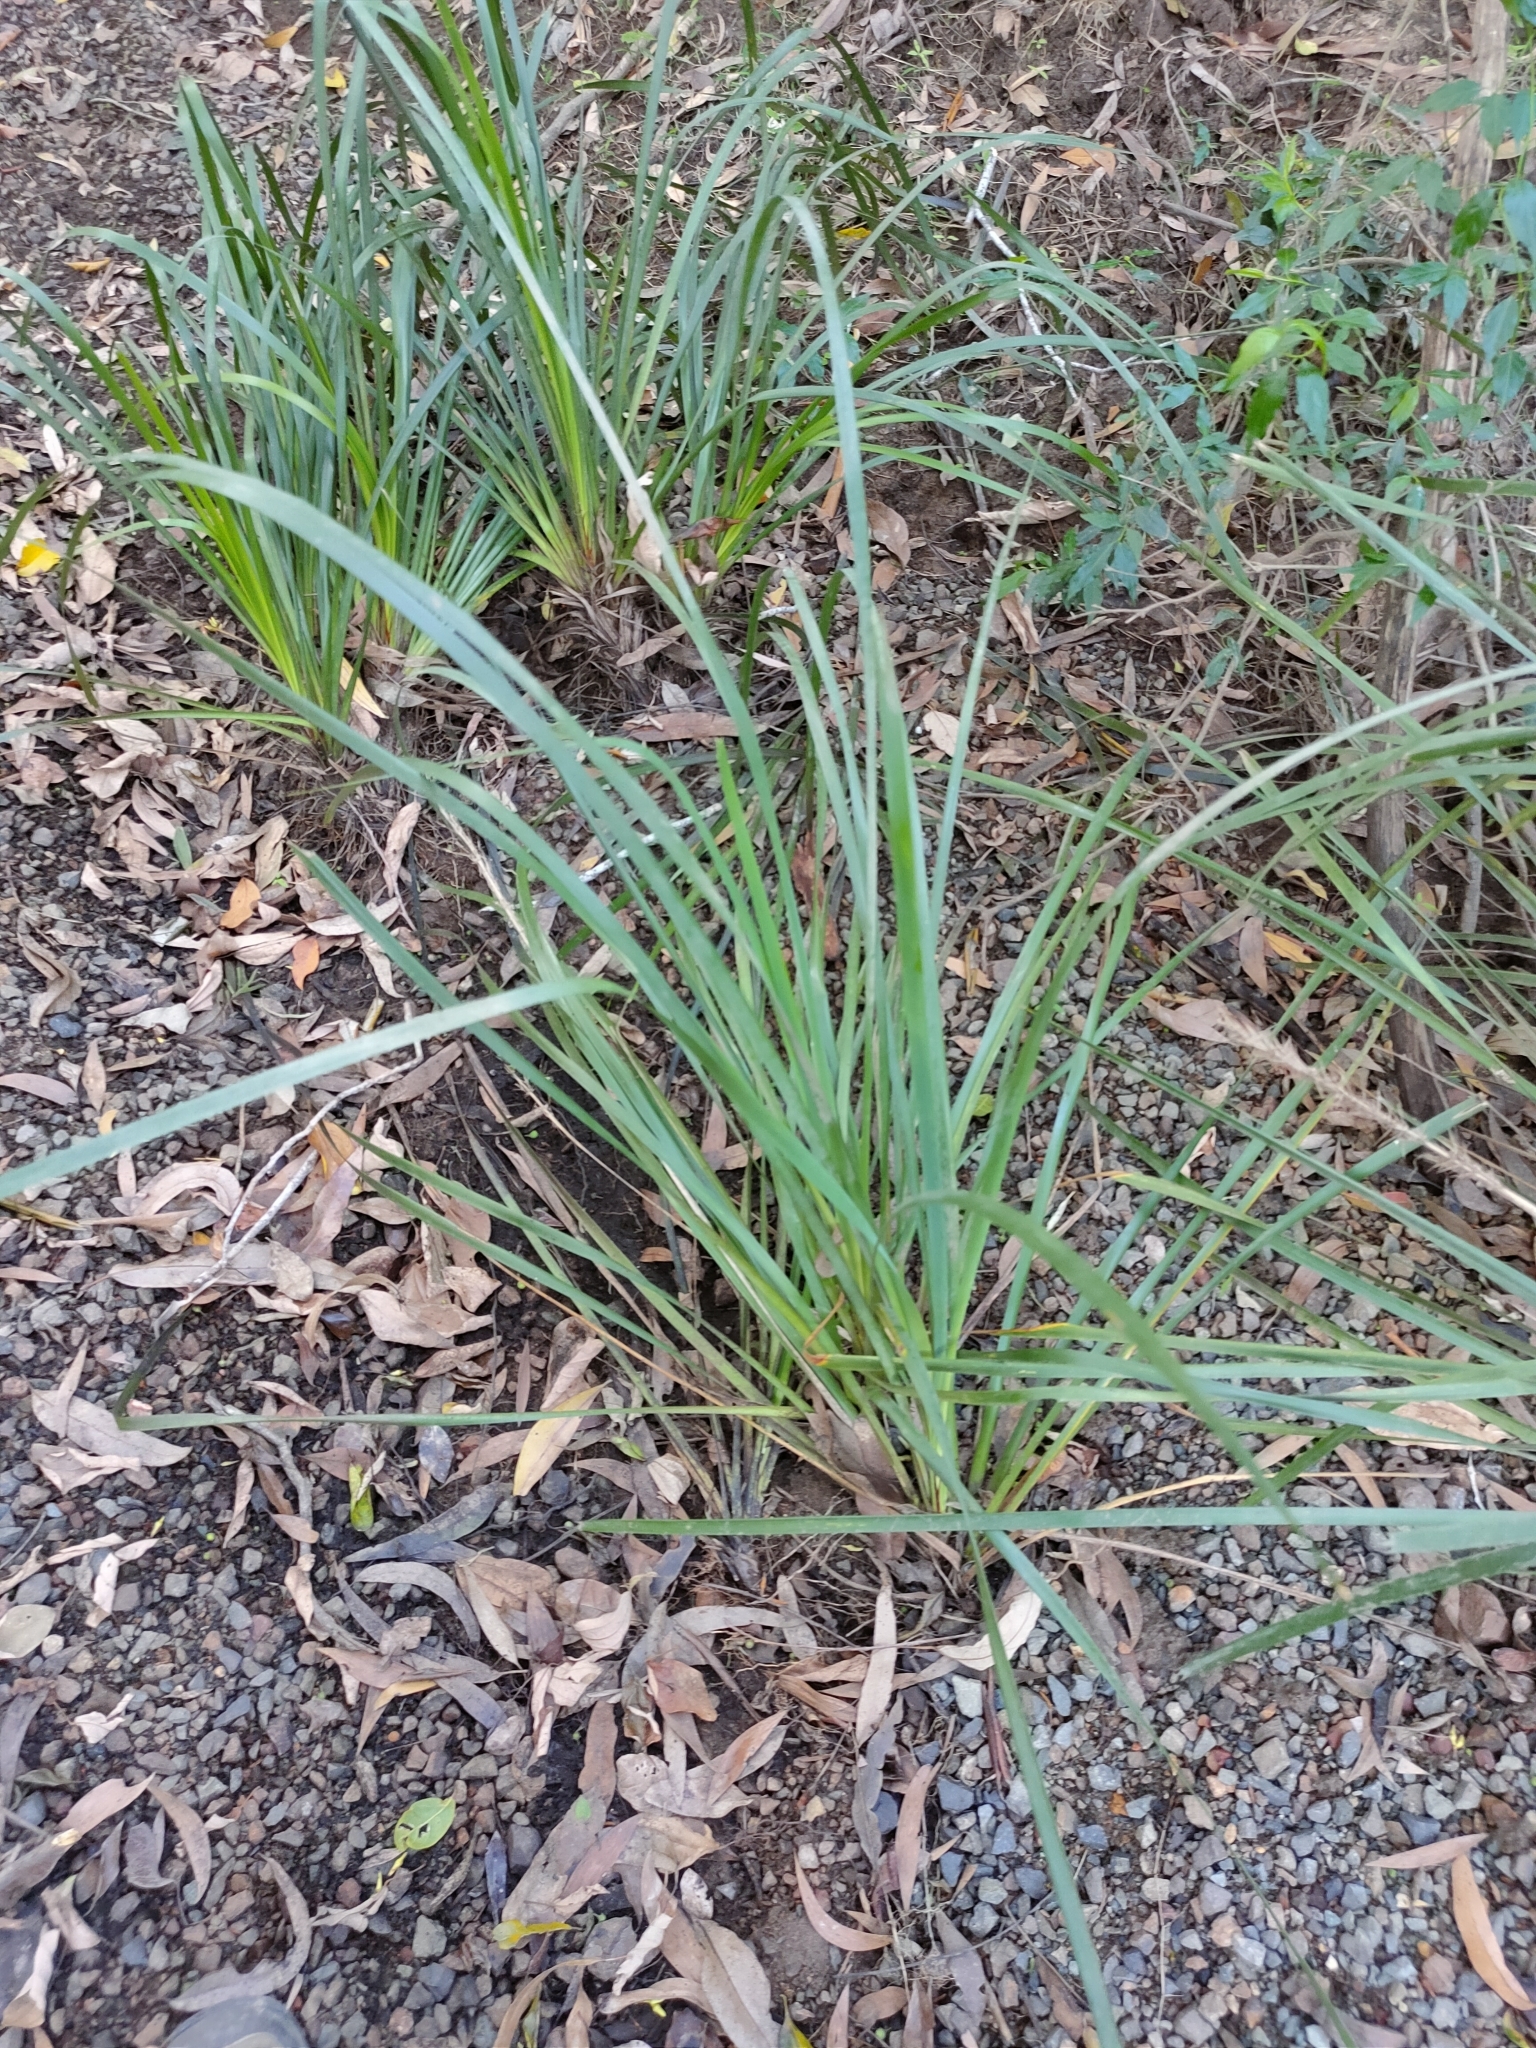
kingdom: Plantae
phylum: Tracheophyta
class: Liliopsida
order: Asparagales
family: Asparagaceae
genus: Lomandra
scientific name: Lomandra longifolia
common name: Longleaf mat-rush
